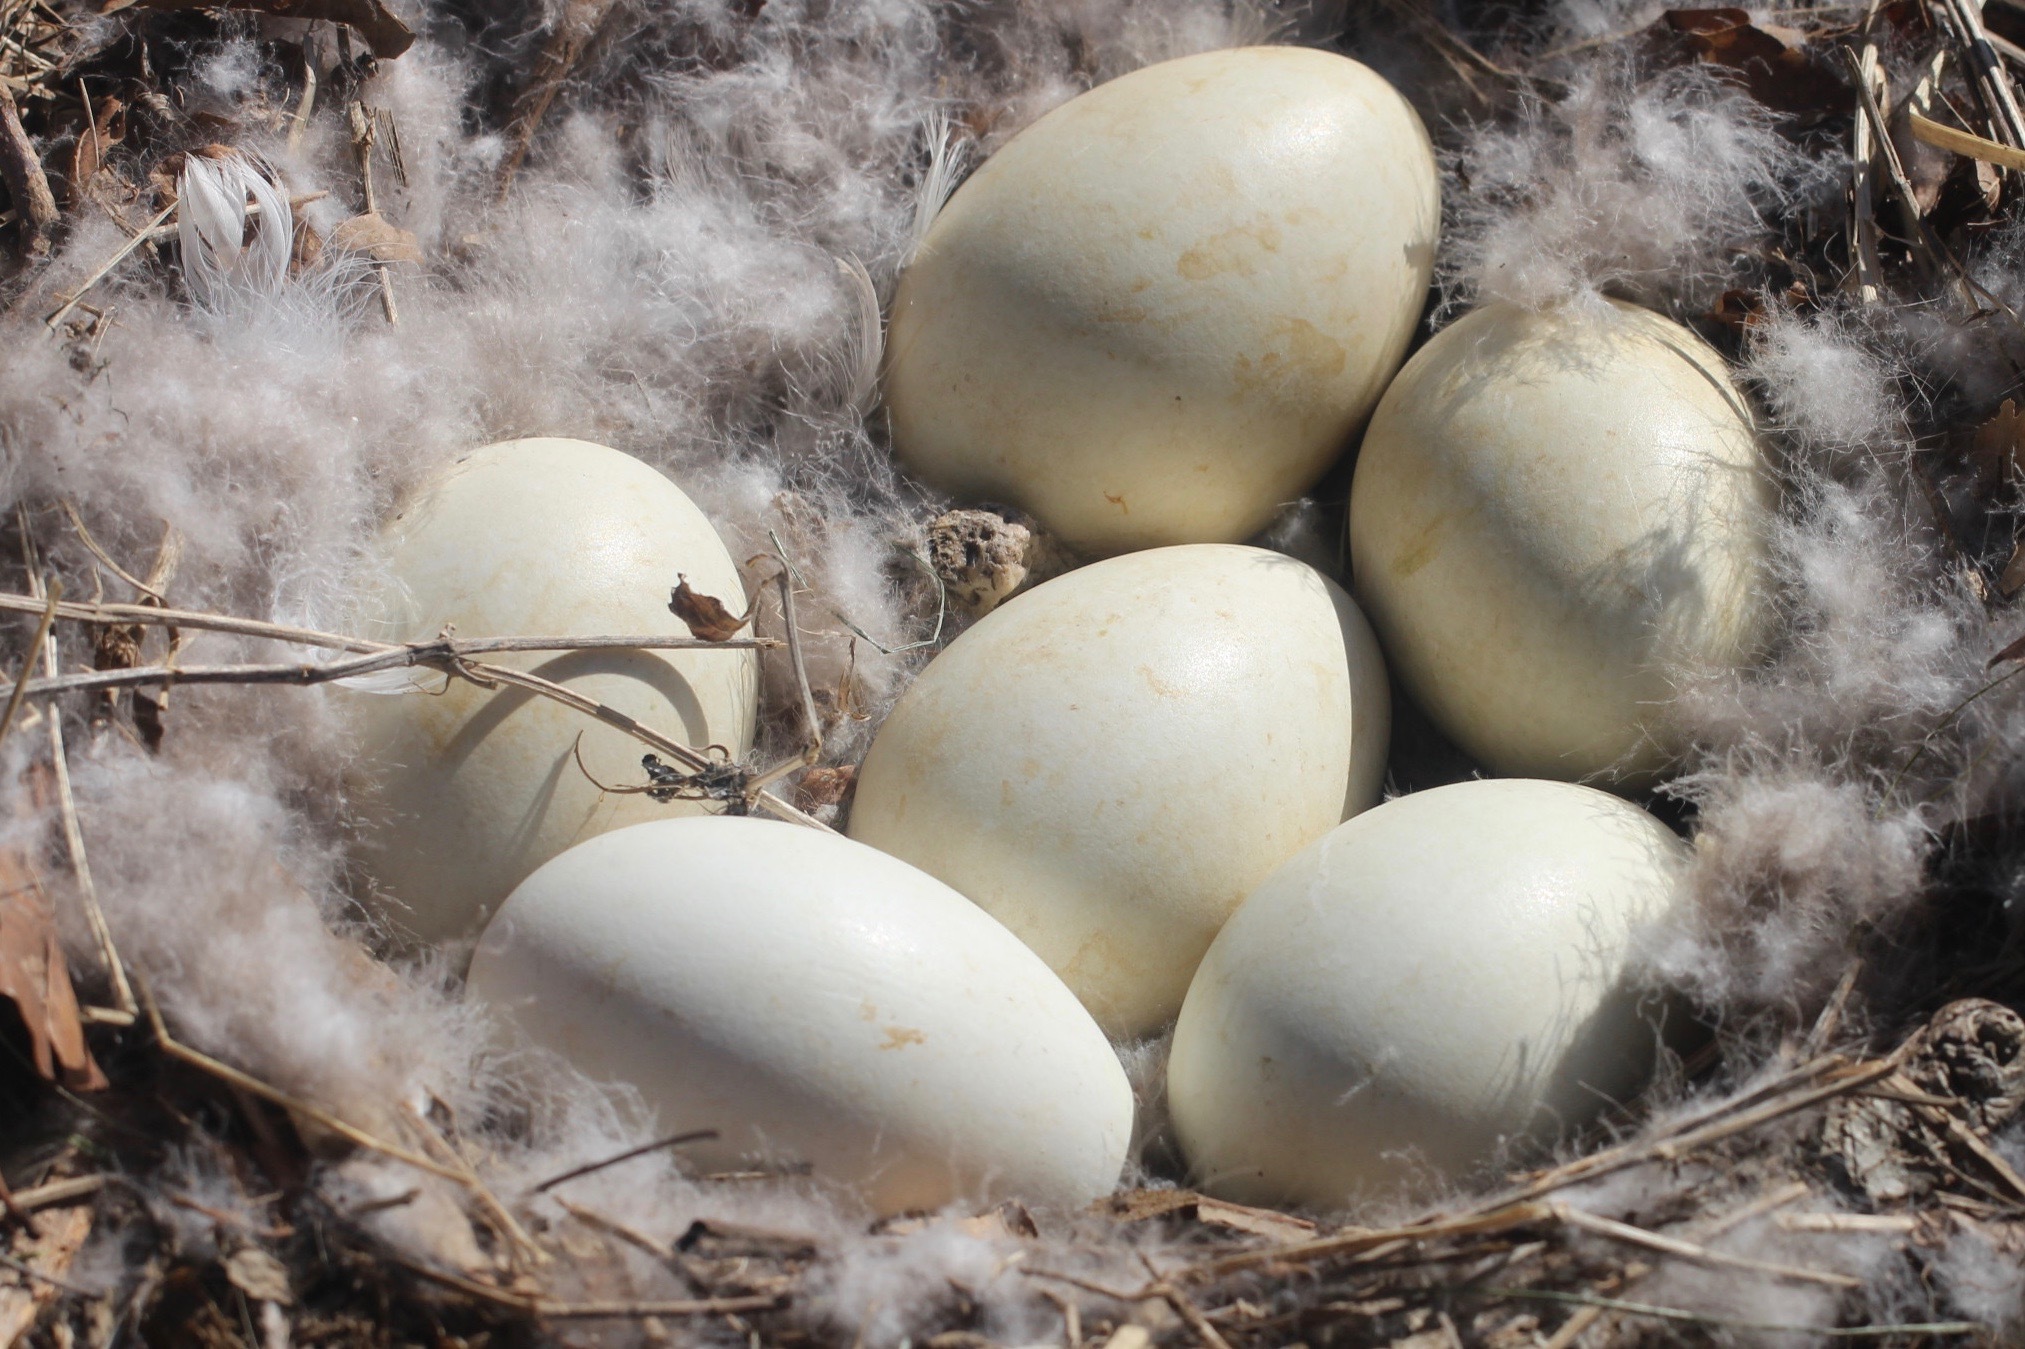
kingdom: Animalia
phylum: Chordata
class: Aves
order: Anseriformes
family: Anatidae
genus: Branta
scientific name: Branta canadensis
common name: Canada goose
